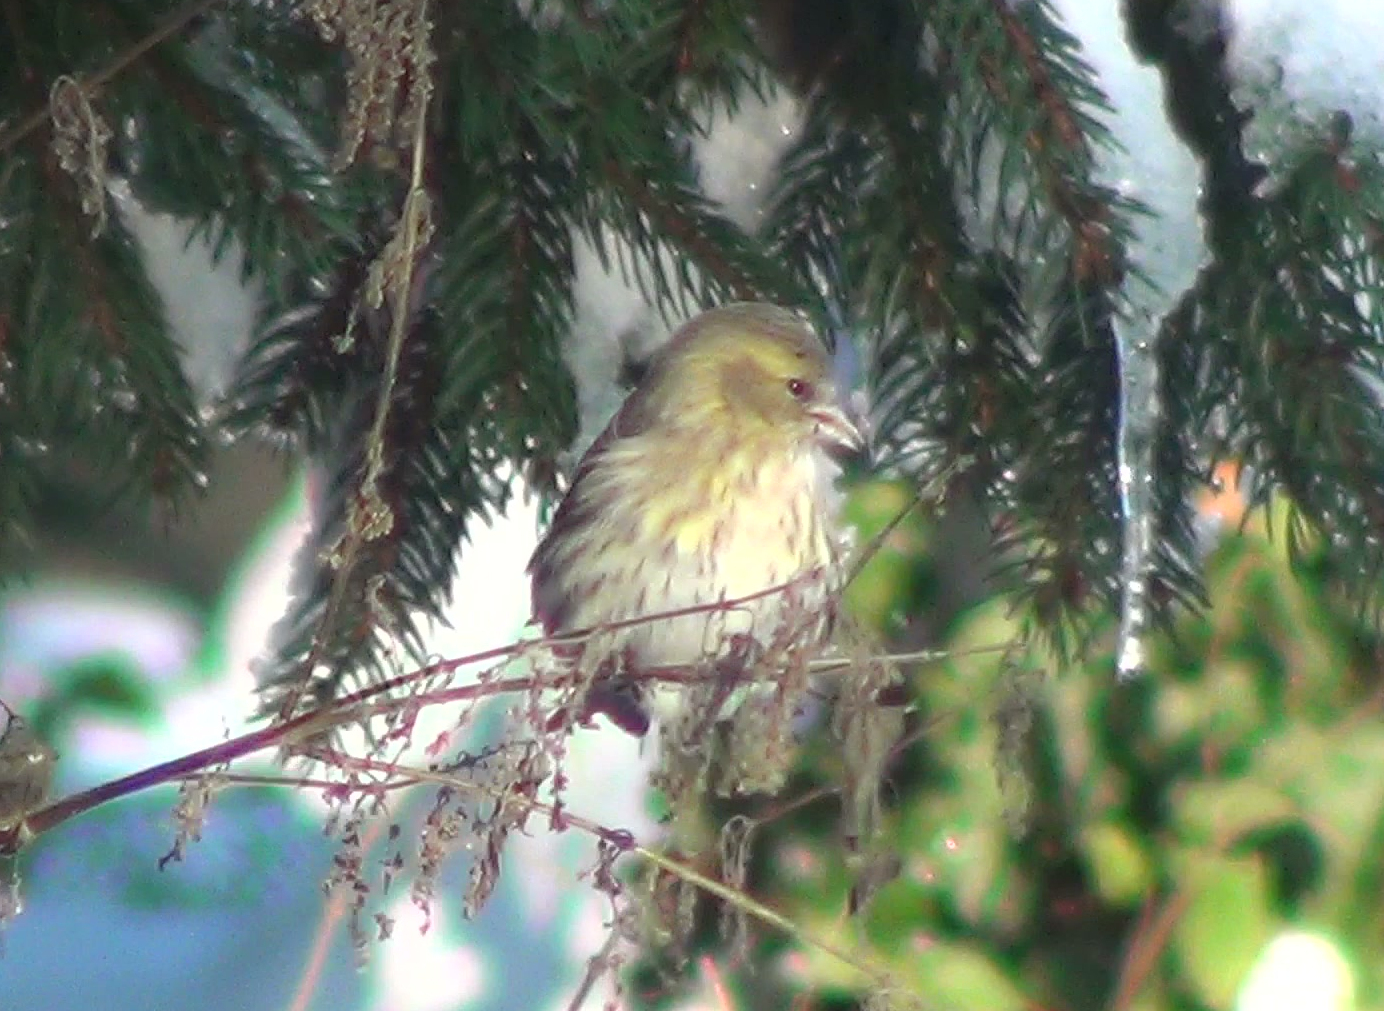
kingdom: Animalia
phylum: Chordata
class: Aves
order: Passeriformes
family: Fringillidae
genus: Spinus
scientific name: Spinus spinus
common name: Eurasian siskin
